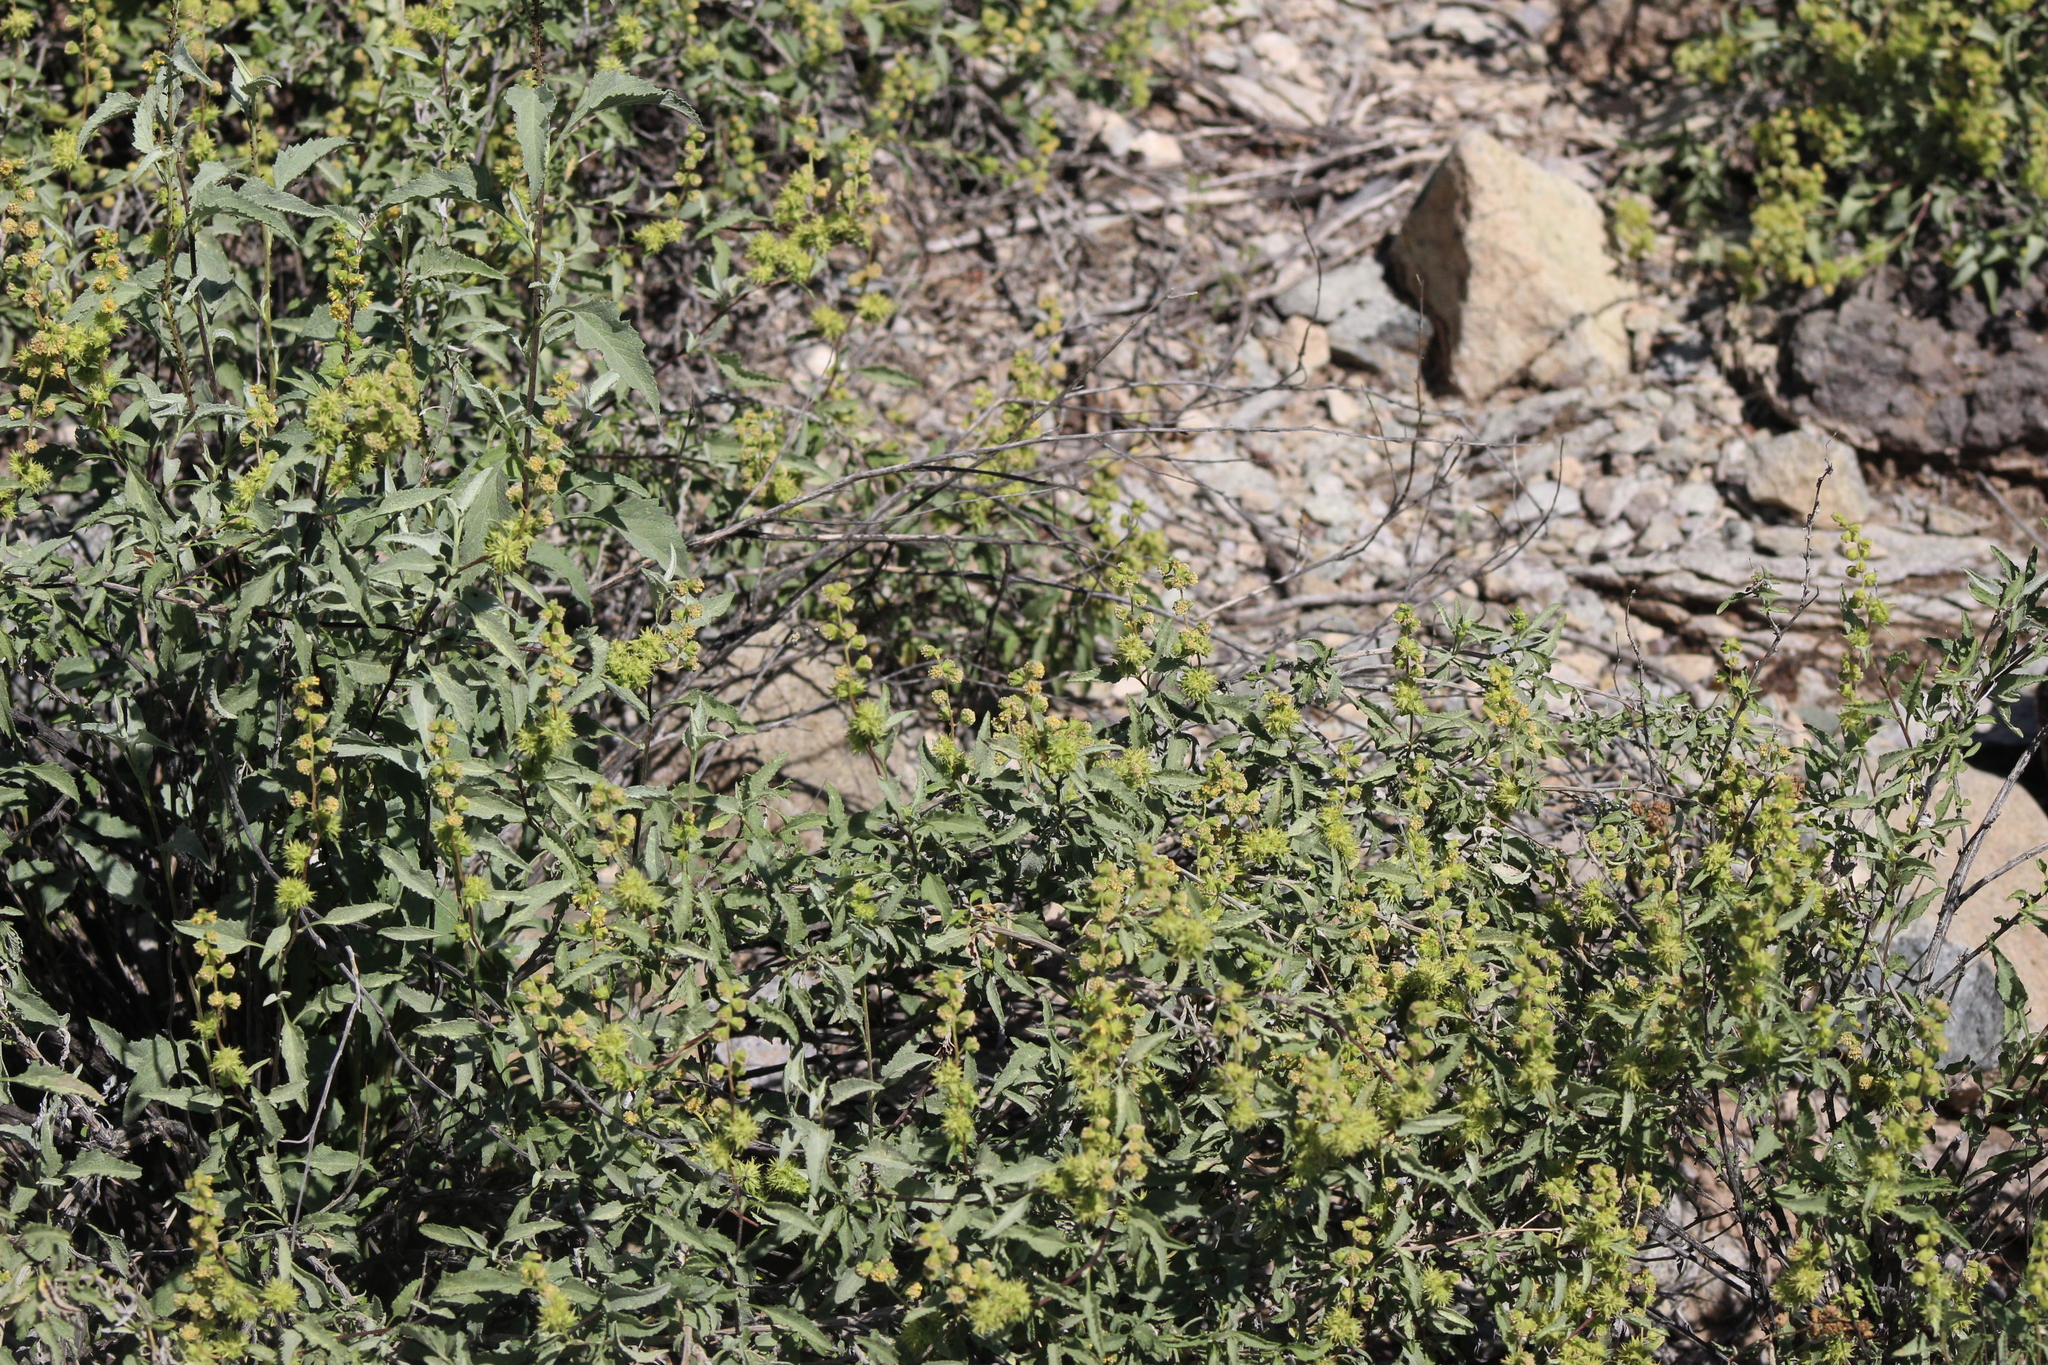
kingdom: Plantae
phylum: Tracheophyta
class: Magnoliopsida
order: Asterales
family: Asteraceae
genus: Ambrosia
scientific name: Ambrosia deltoidea
